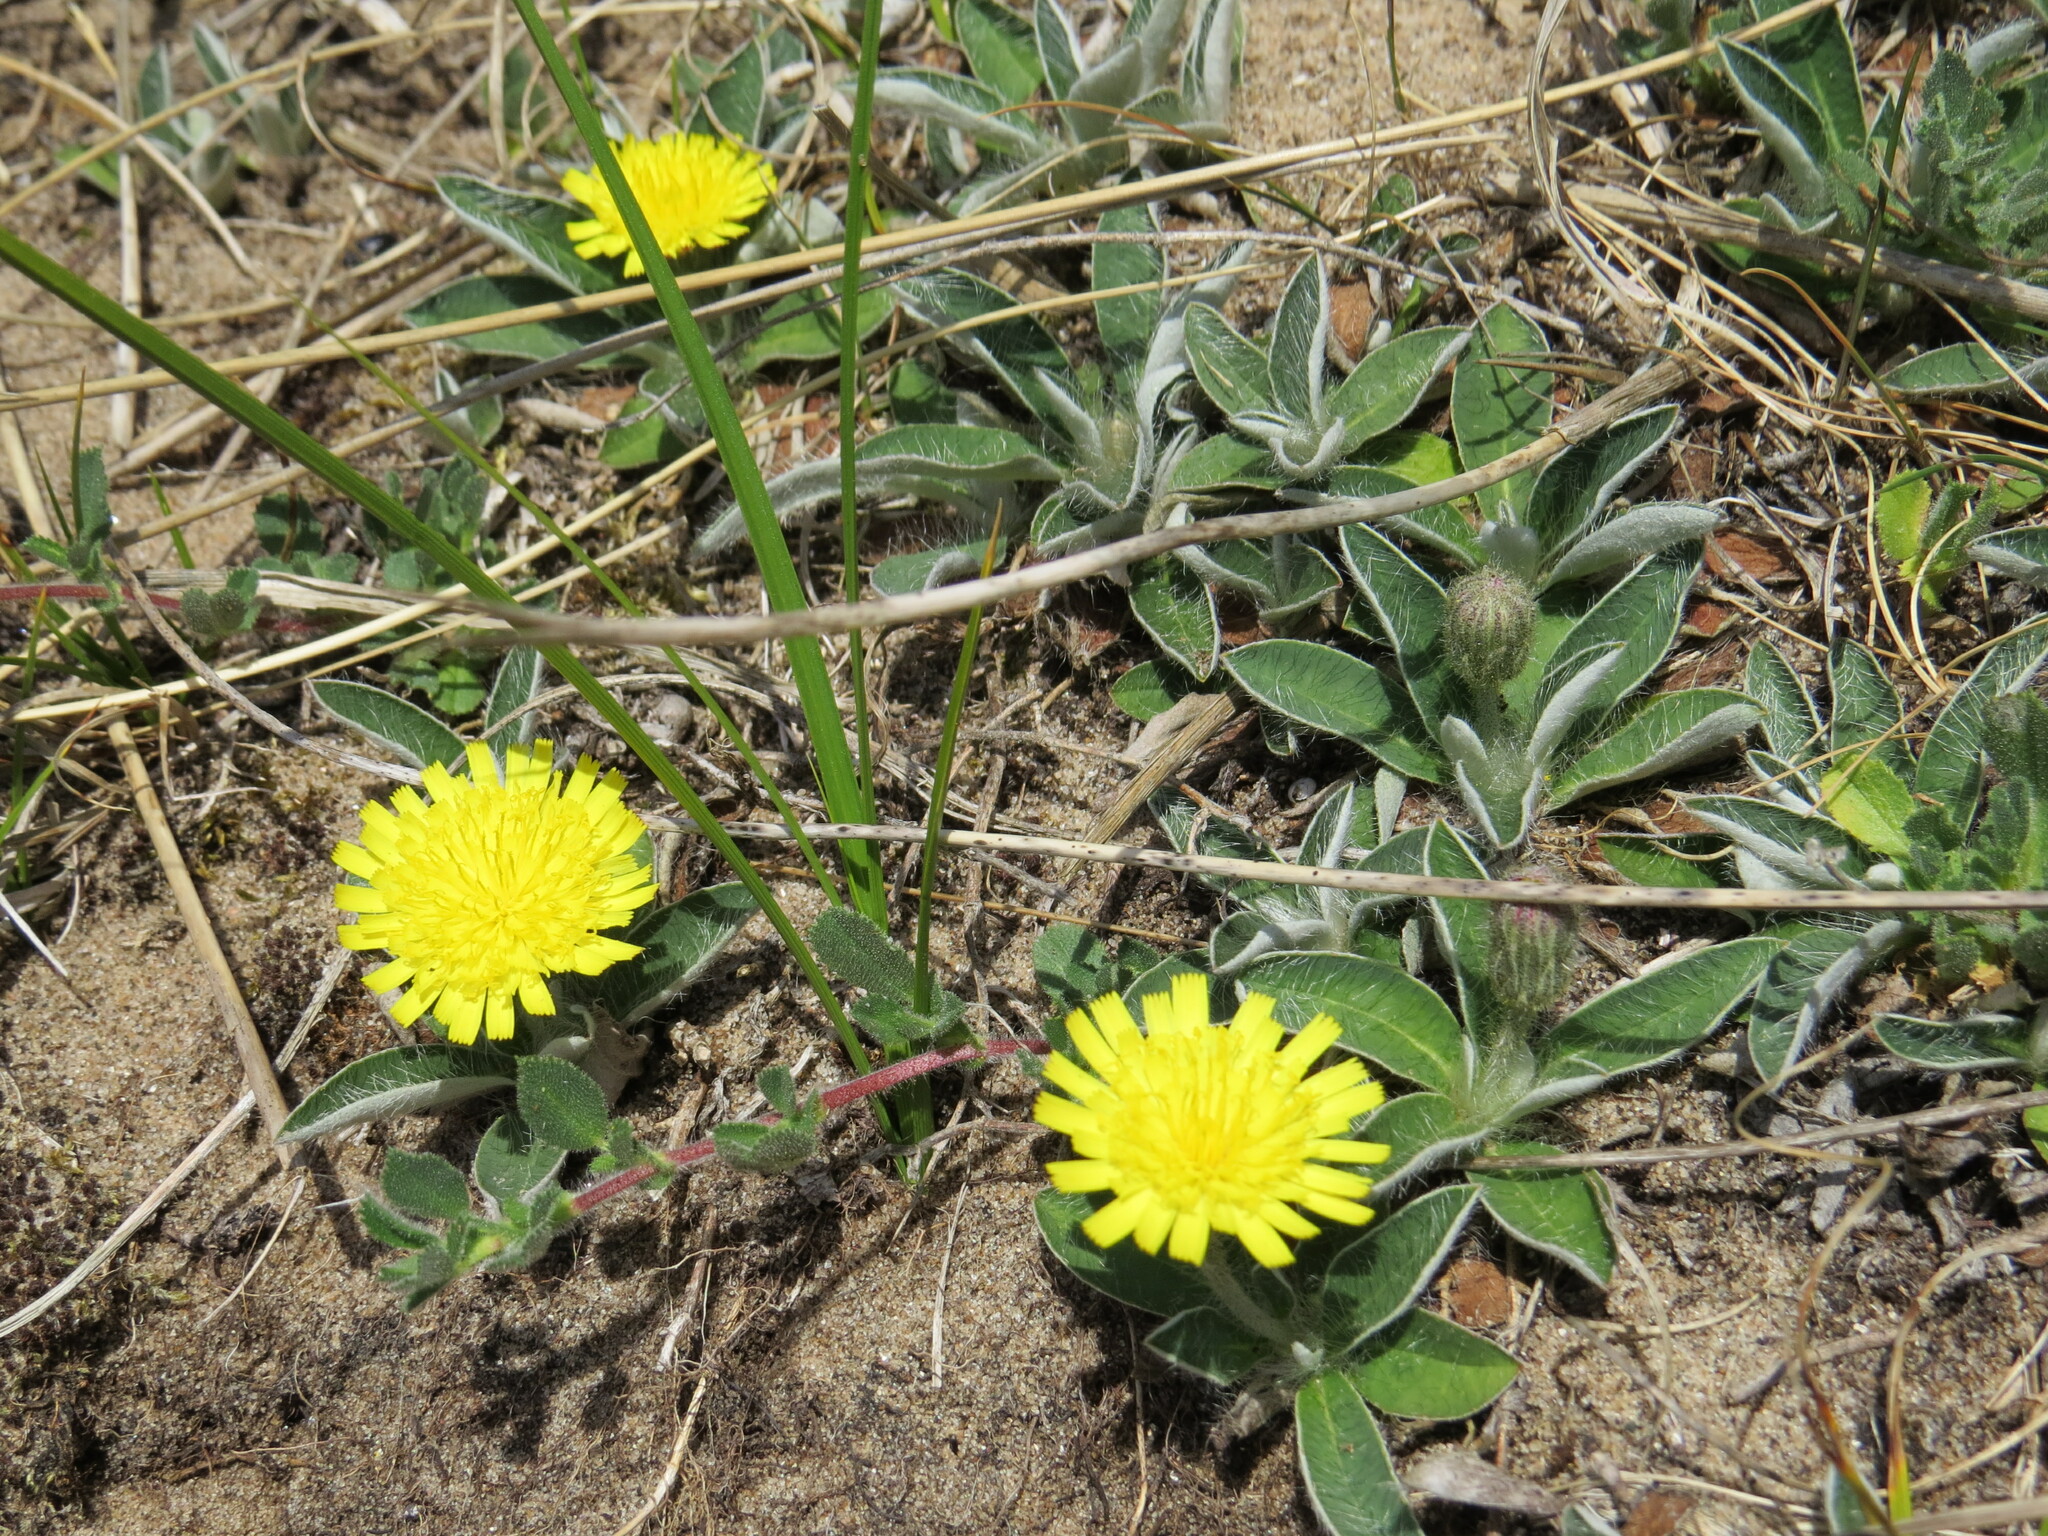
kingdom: Plantae
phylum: Tracheophyta
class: Magnoliopsida
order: Asterales
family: Asteraceae
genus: Pilosella
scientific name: Pilosella officinarum
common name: Mouse-ear hawkweed
